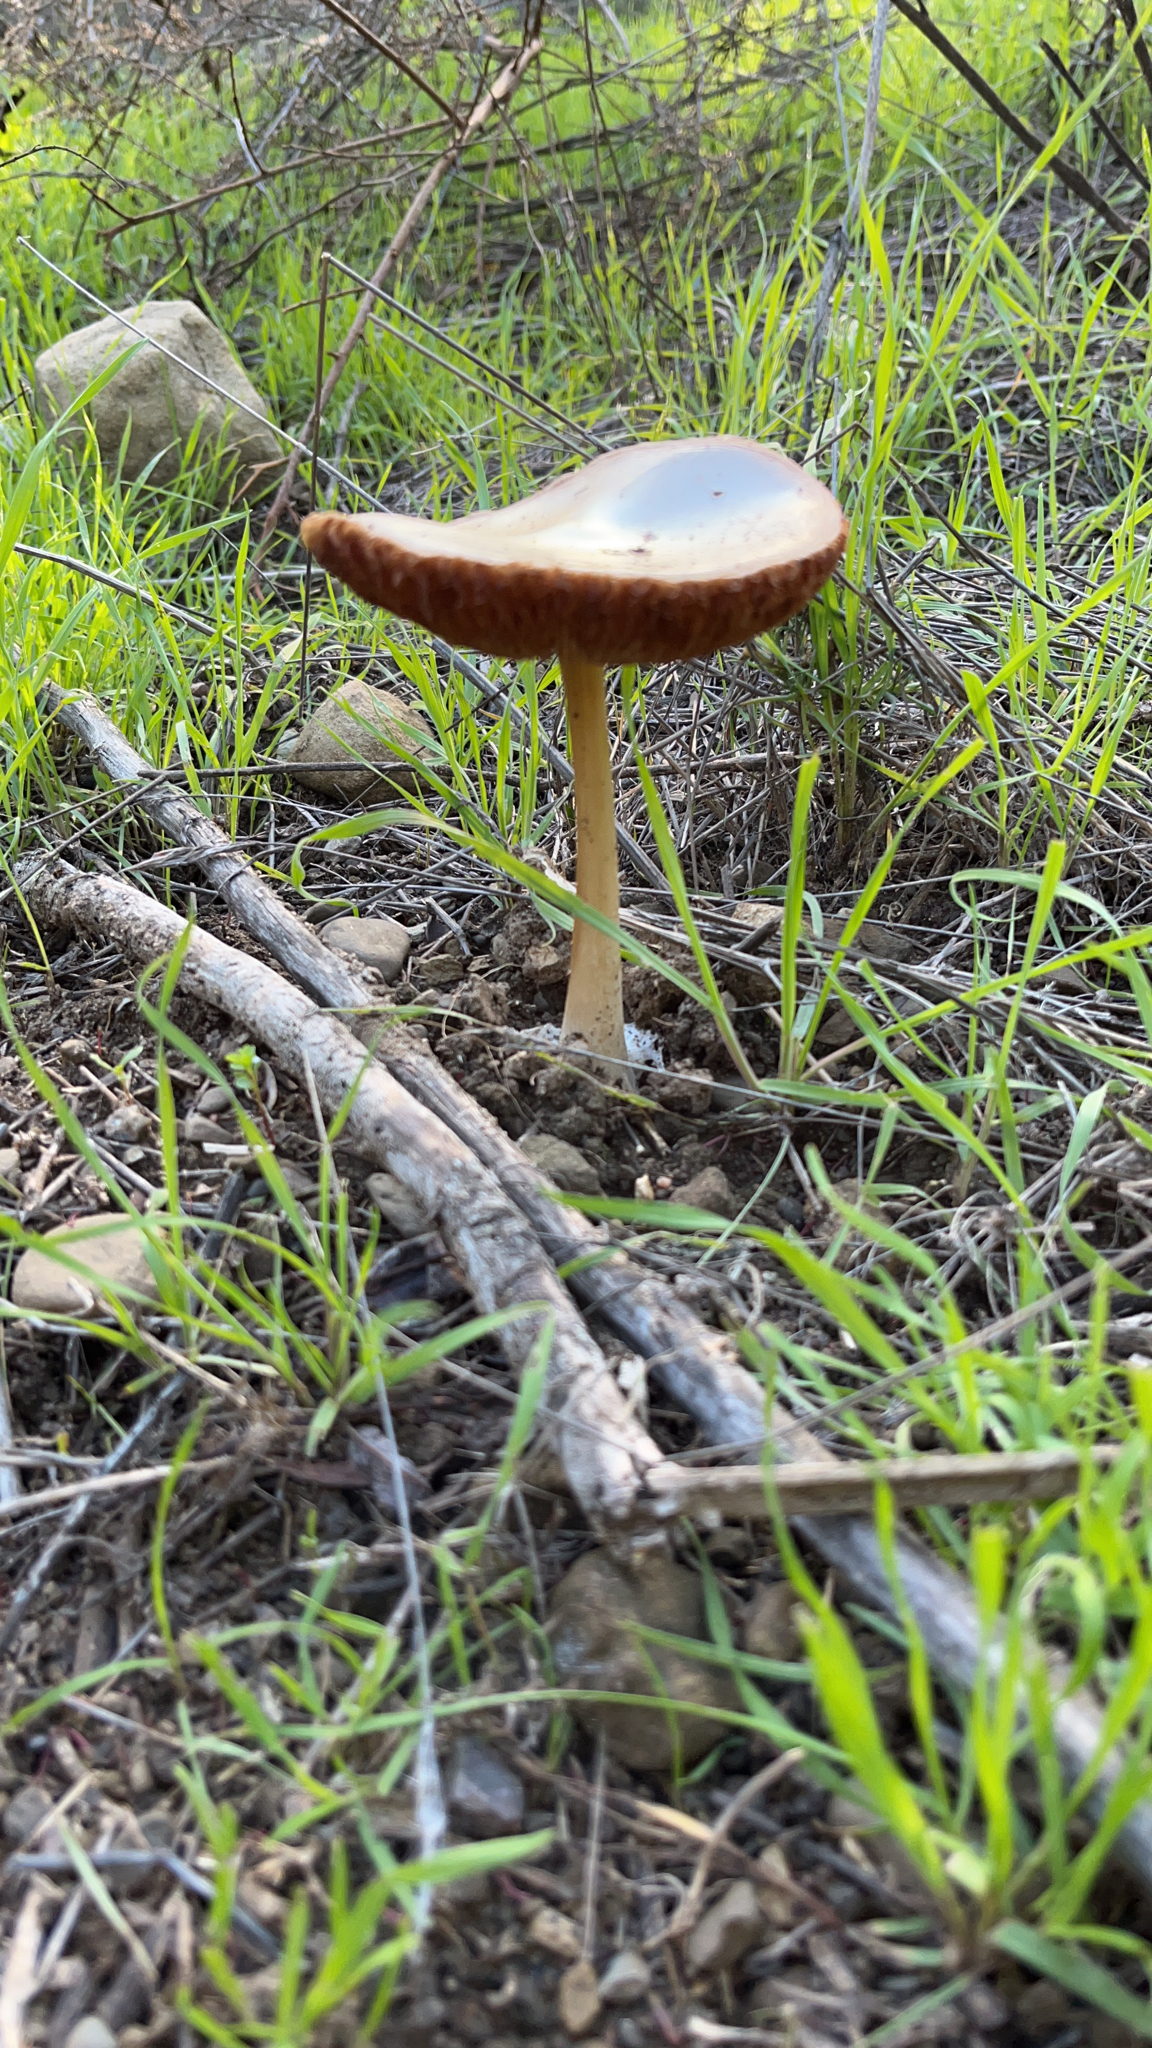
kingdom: Fungi
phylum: Basidiomycota
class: Agaricomycetes
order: Agaricales
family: Pluteaceae
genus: Volvopluteus
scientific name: Volvopluteus gloiocephalus
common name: Stubble rosegill
